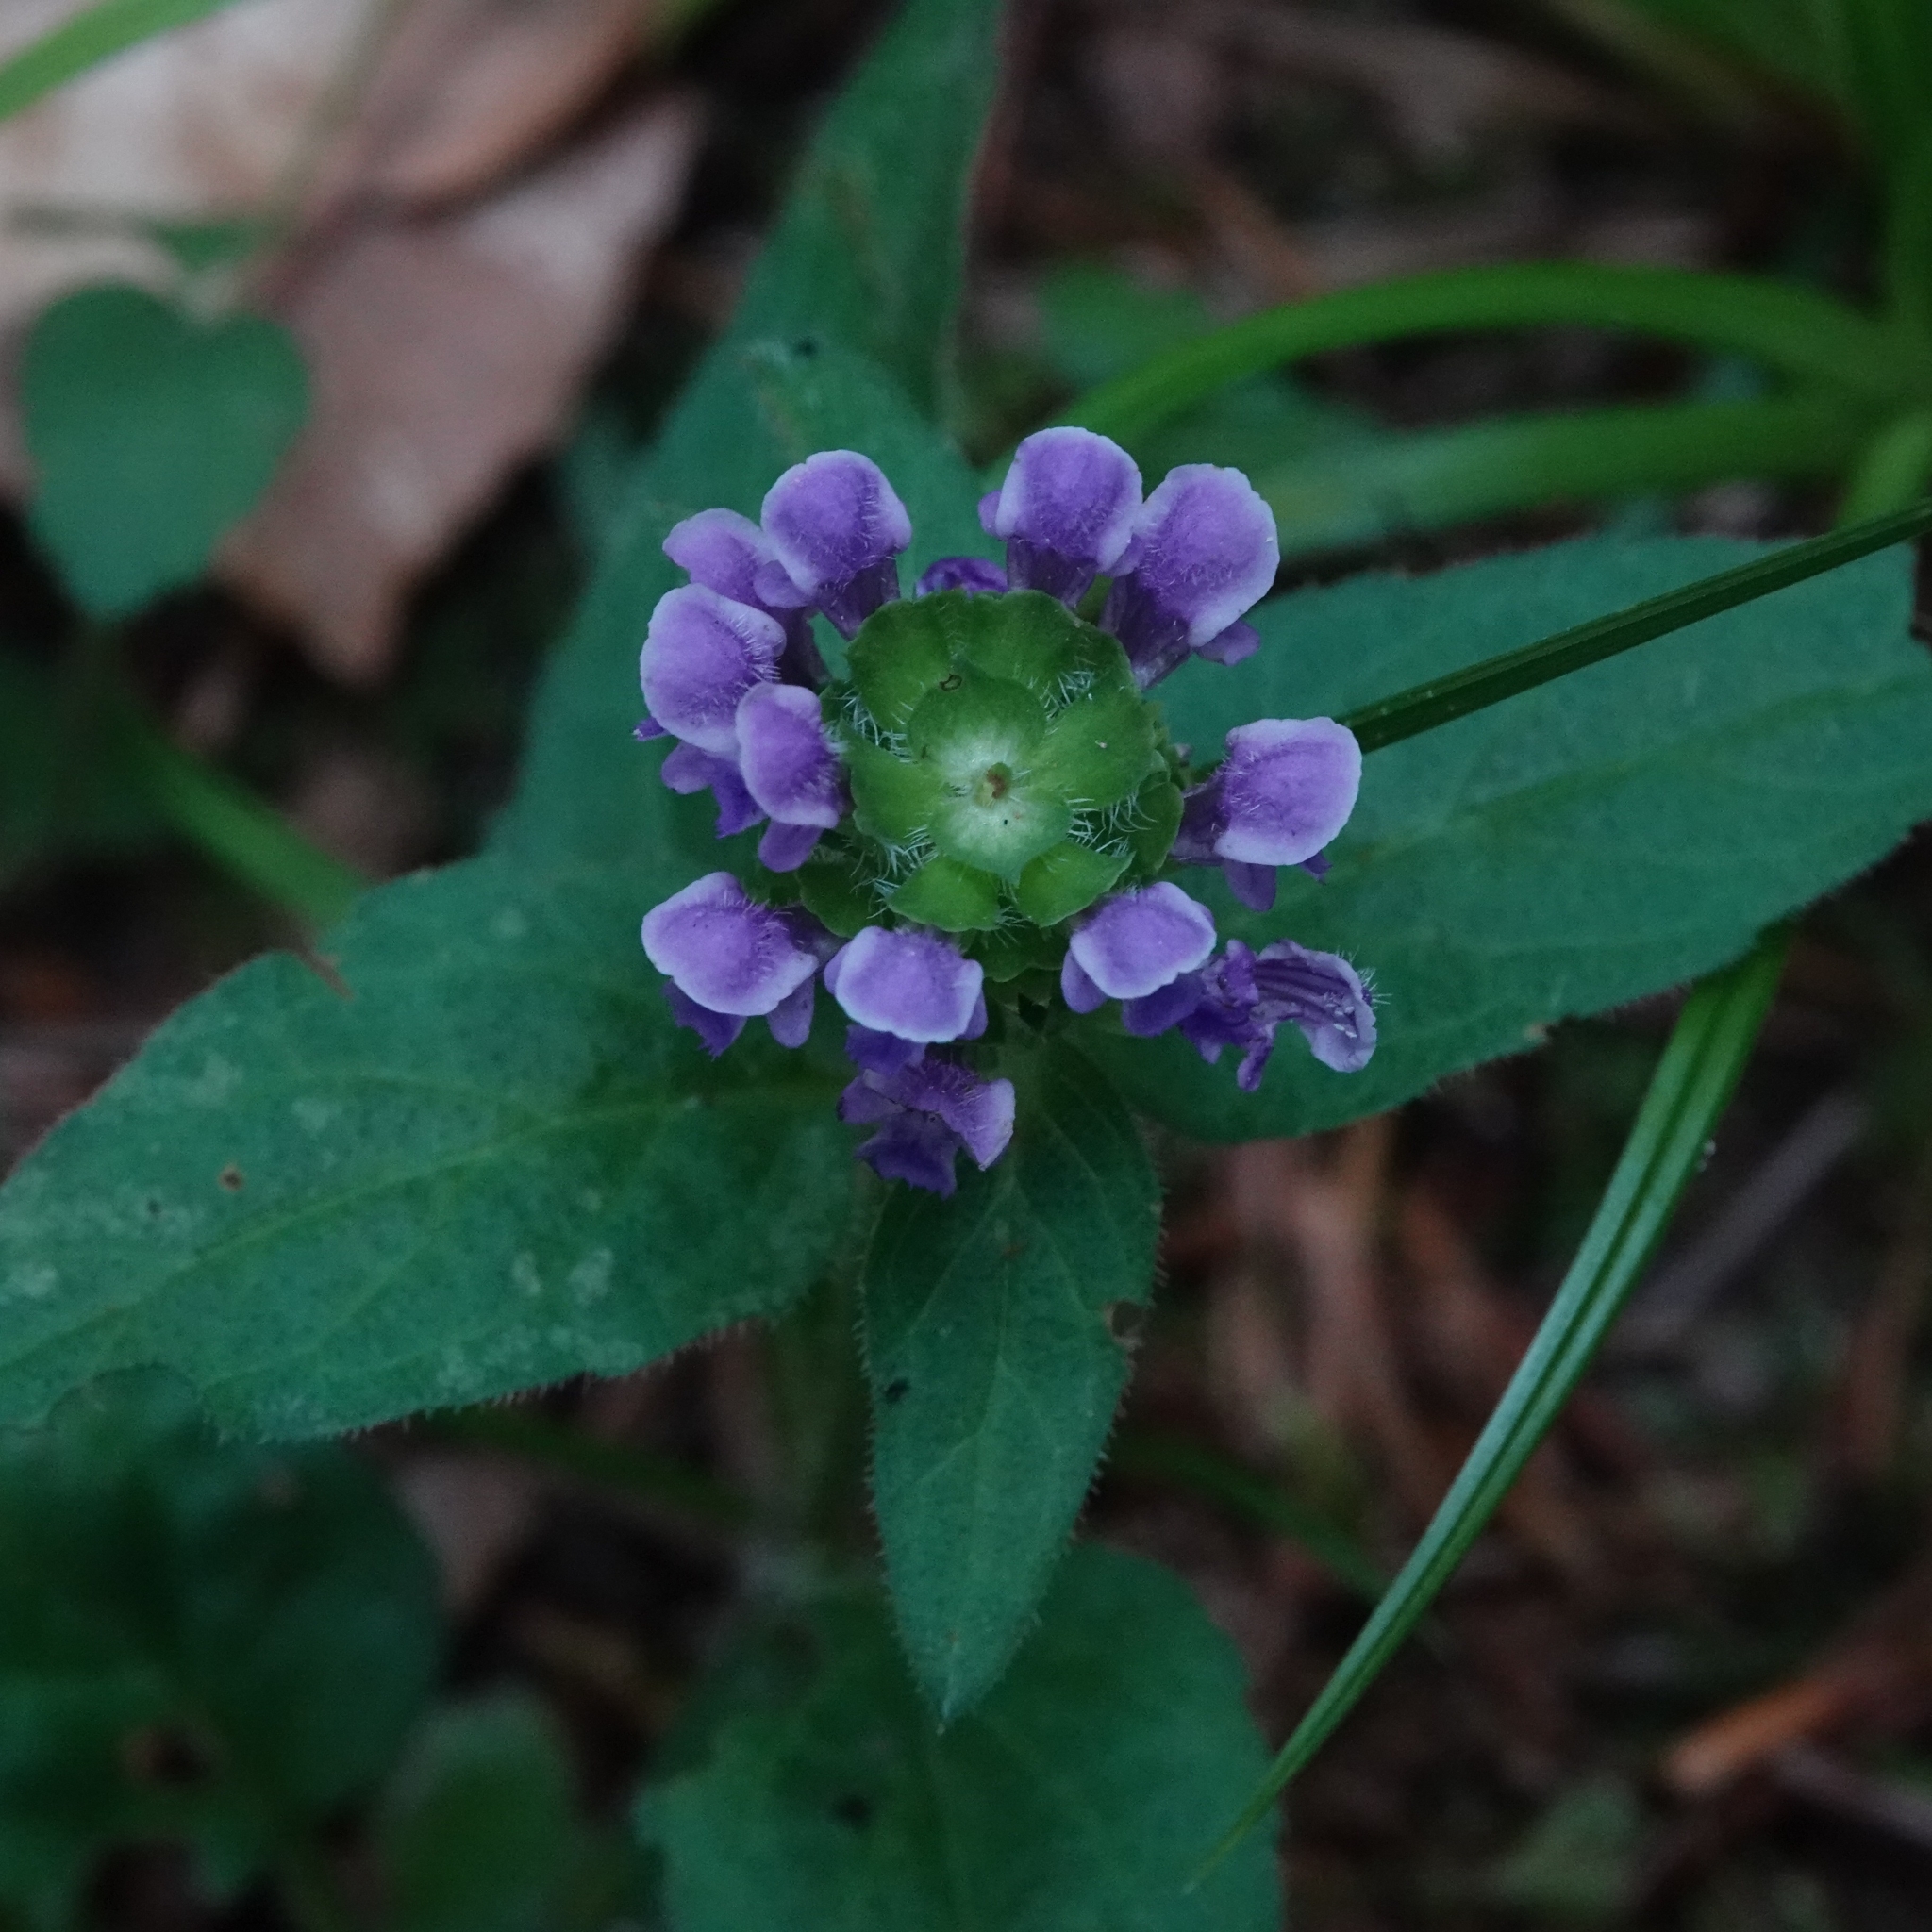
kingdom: Plantae
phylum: Tracheophyta
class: Magnoliopsida
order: Lamiales
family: Lamiaceae
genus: Prunella
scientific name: Prunella vulgaris
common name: Heal-all
